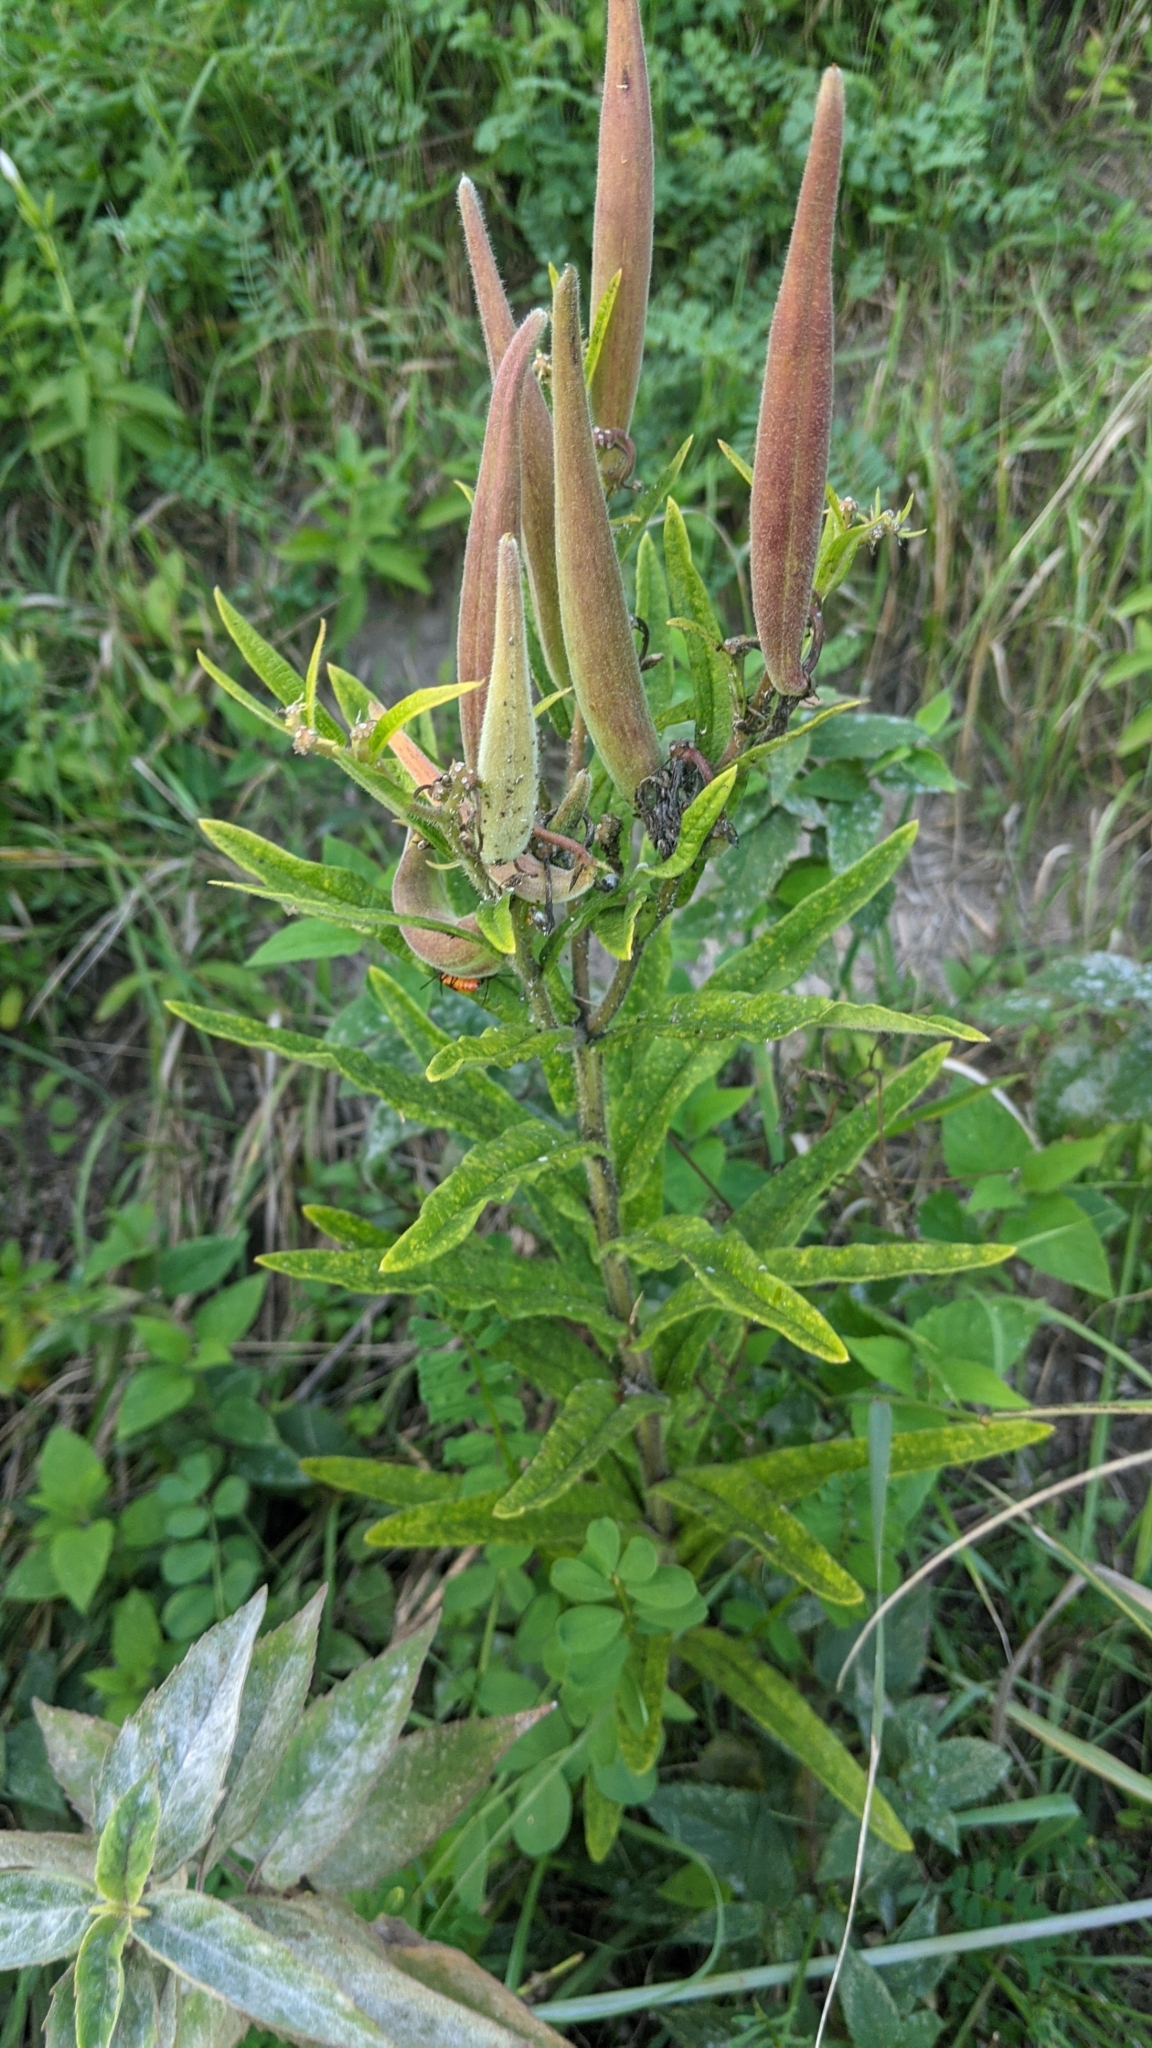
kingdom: Plantae
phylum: Tracheophyta
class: Magnoliopsida
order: Gentianales
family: Apocynaceae
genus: Asclepias
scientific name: Asclepias tuberosa
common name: Butterfly milkweed
